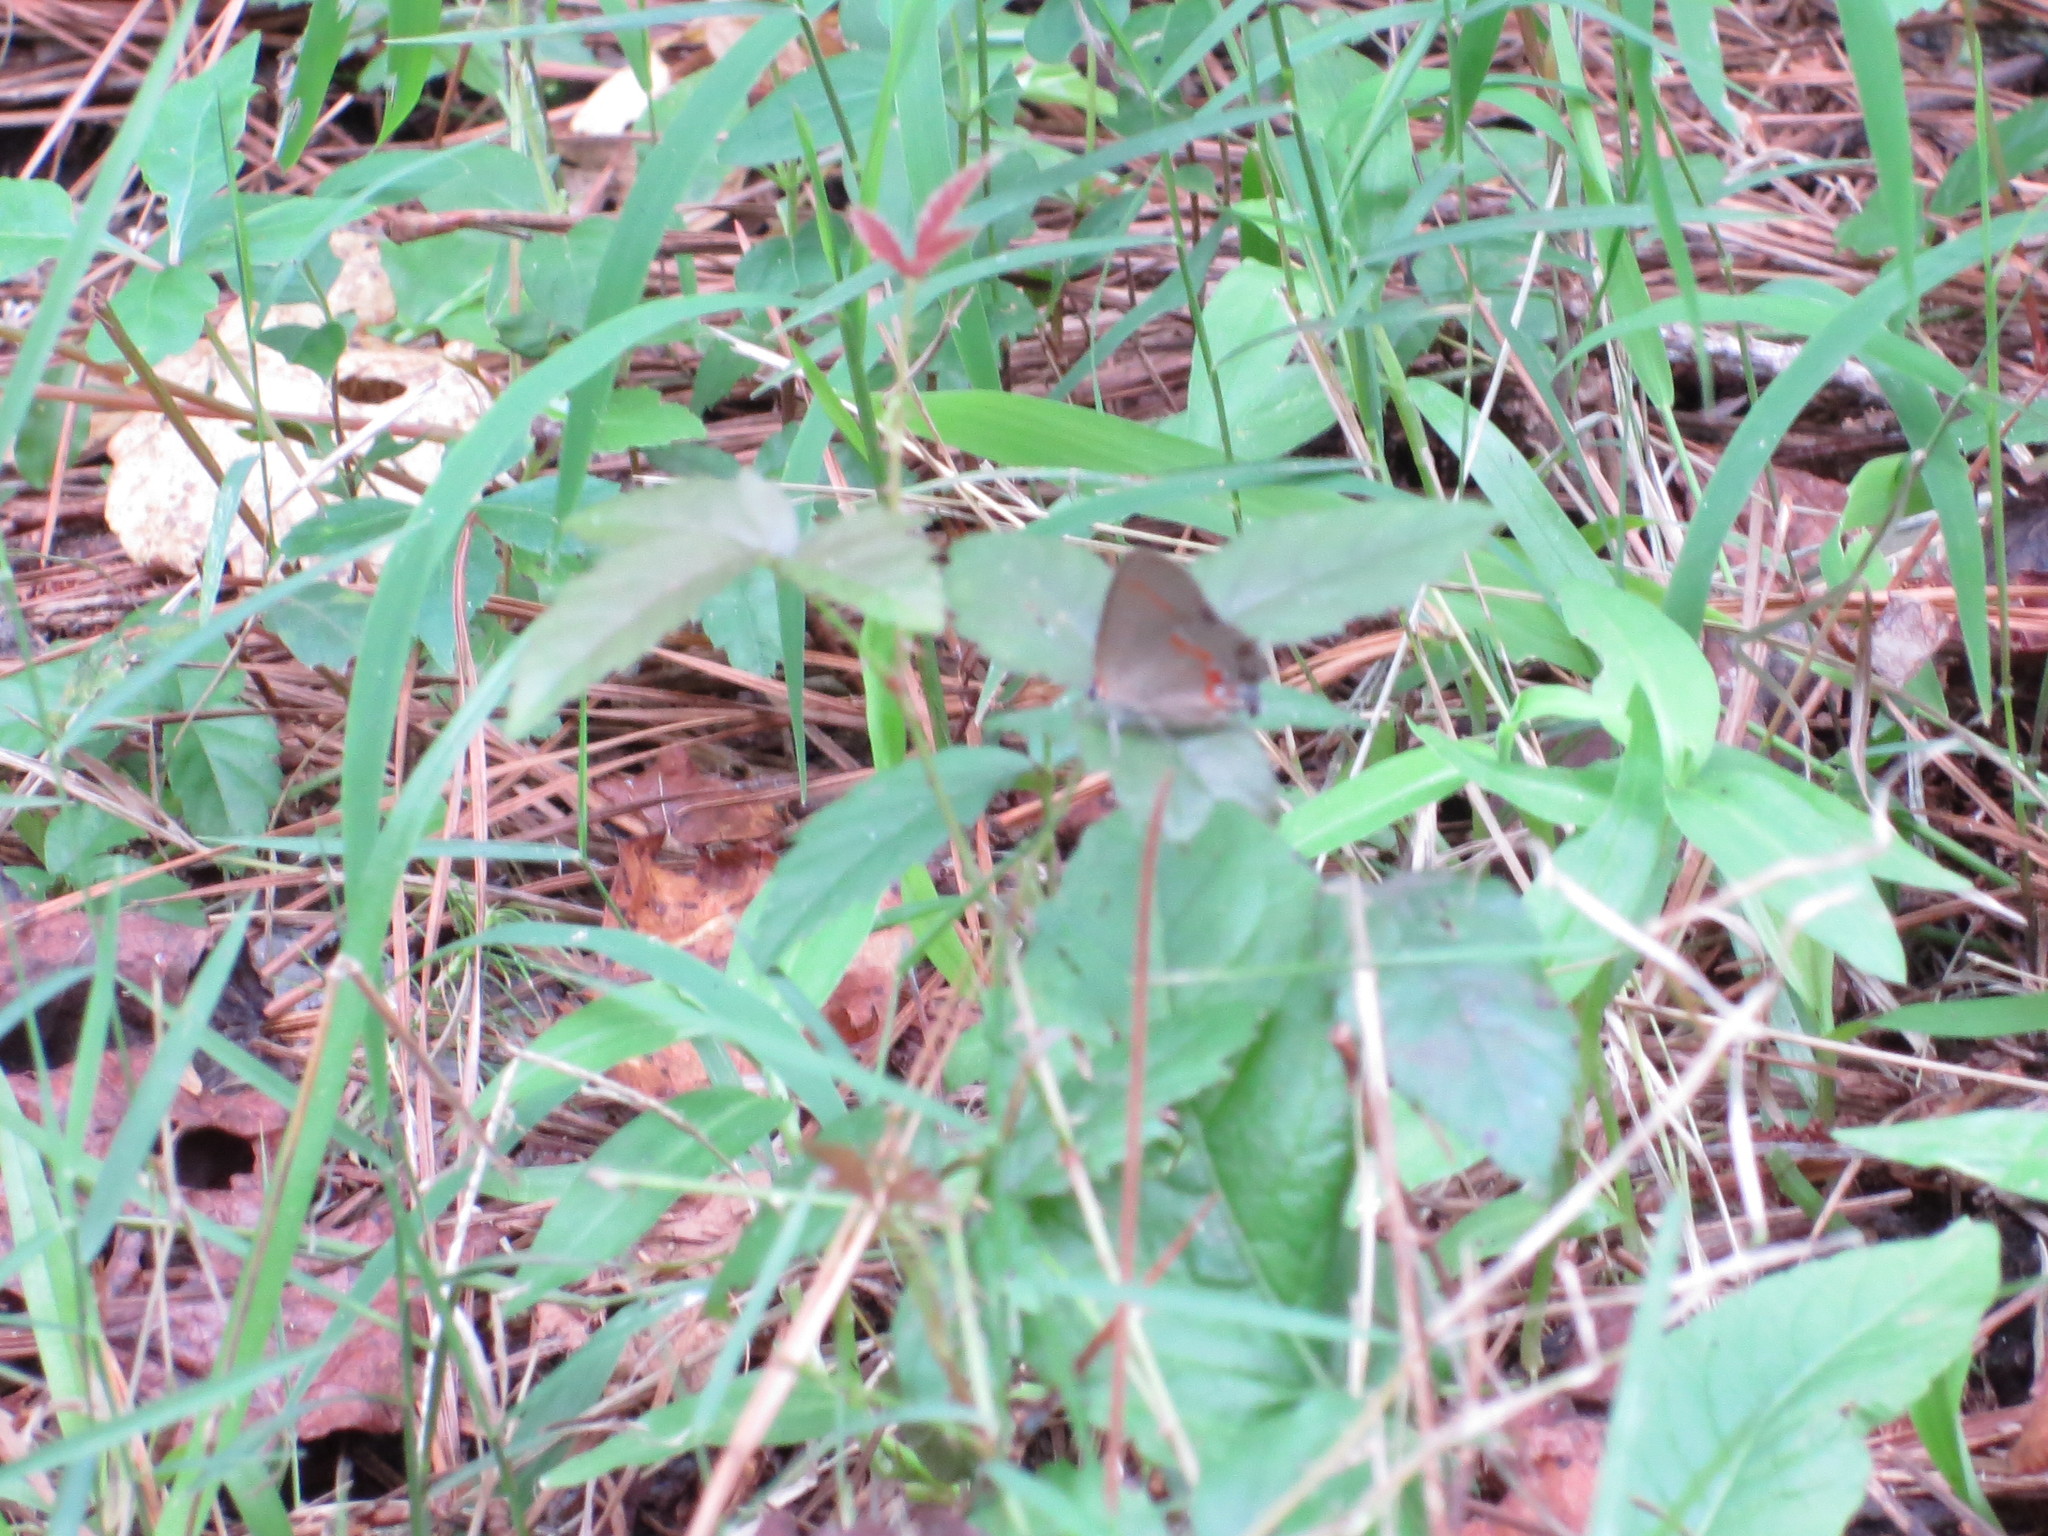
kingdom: Animalia
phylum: Arthropoda
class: Insecta
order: Lepidoptera
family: Lycaenidae
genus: Calycopis
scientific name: Calycopis cecrops
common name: Red-banded hairstreak
